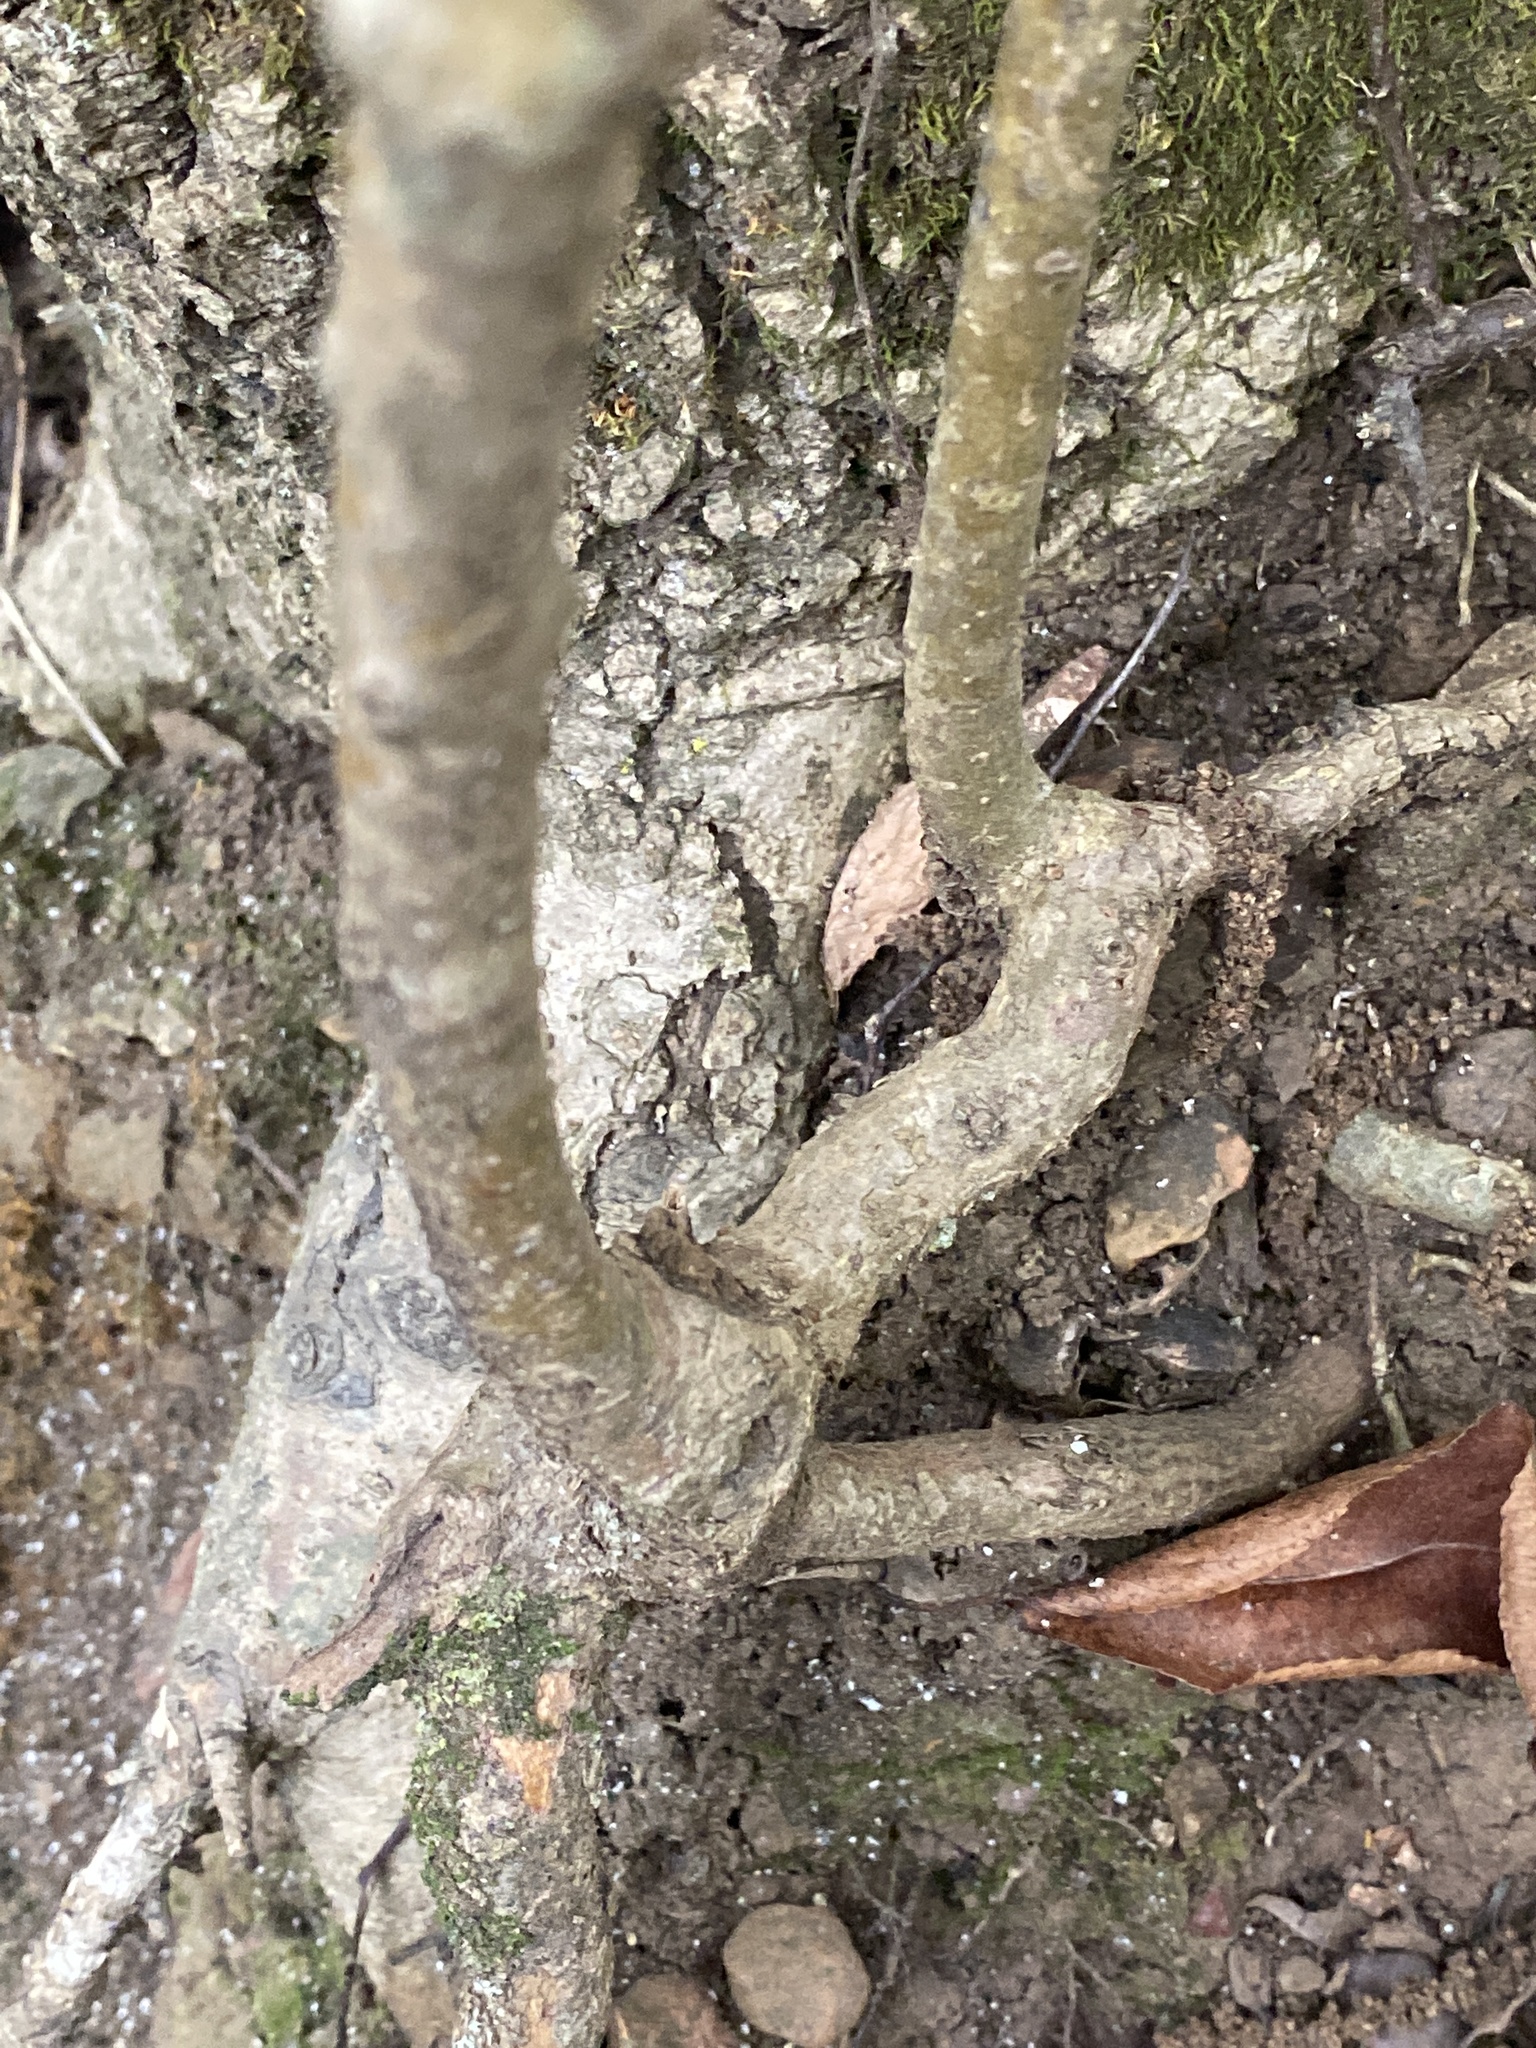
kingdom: Plantae
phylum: Tracheophyta
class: Magnoliopsida
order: Dipsacales
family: Viburnaceae
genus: Viburnum
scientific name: Viburnum prunifolium
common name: Black haw
